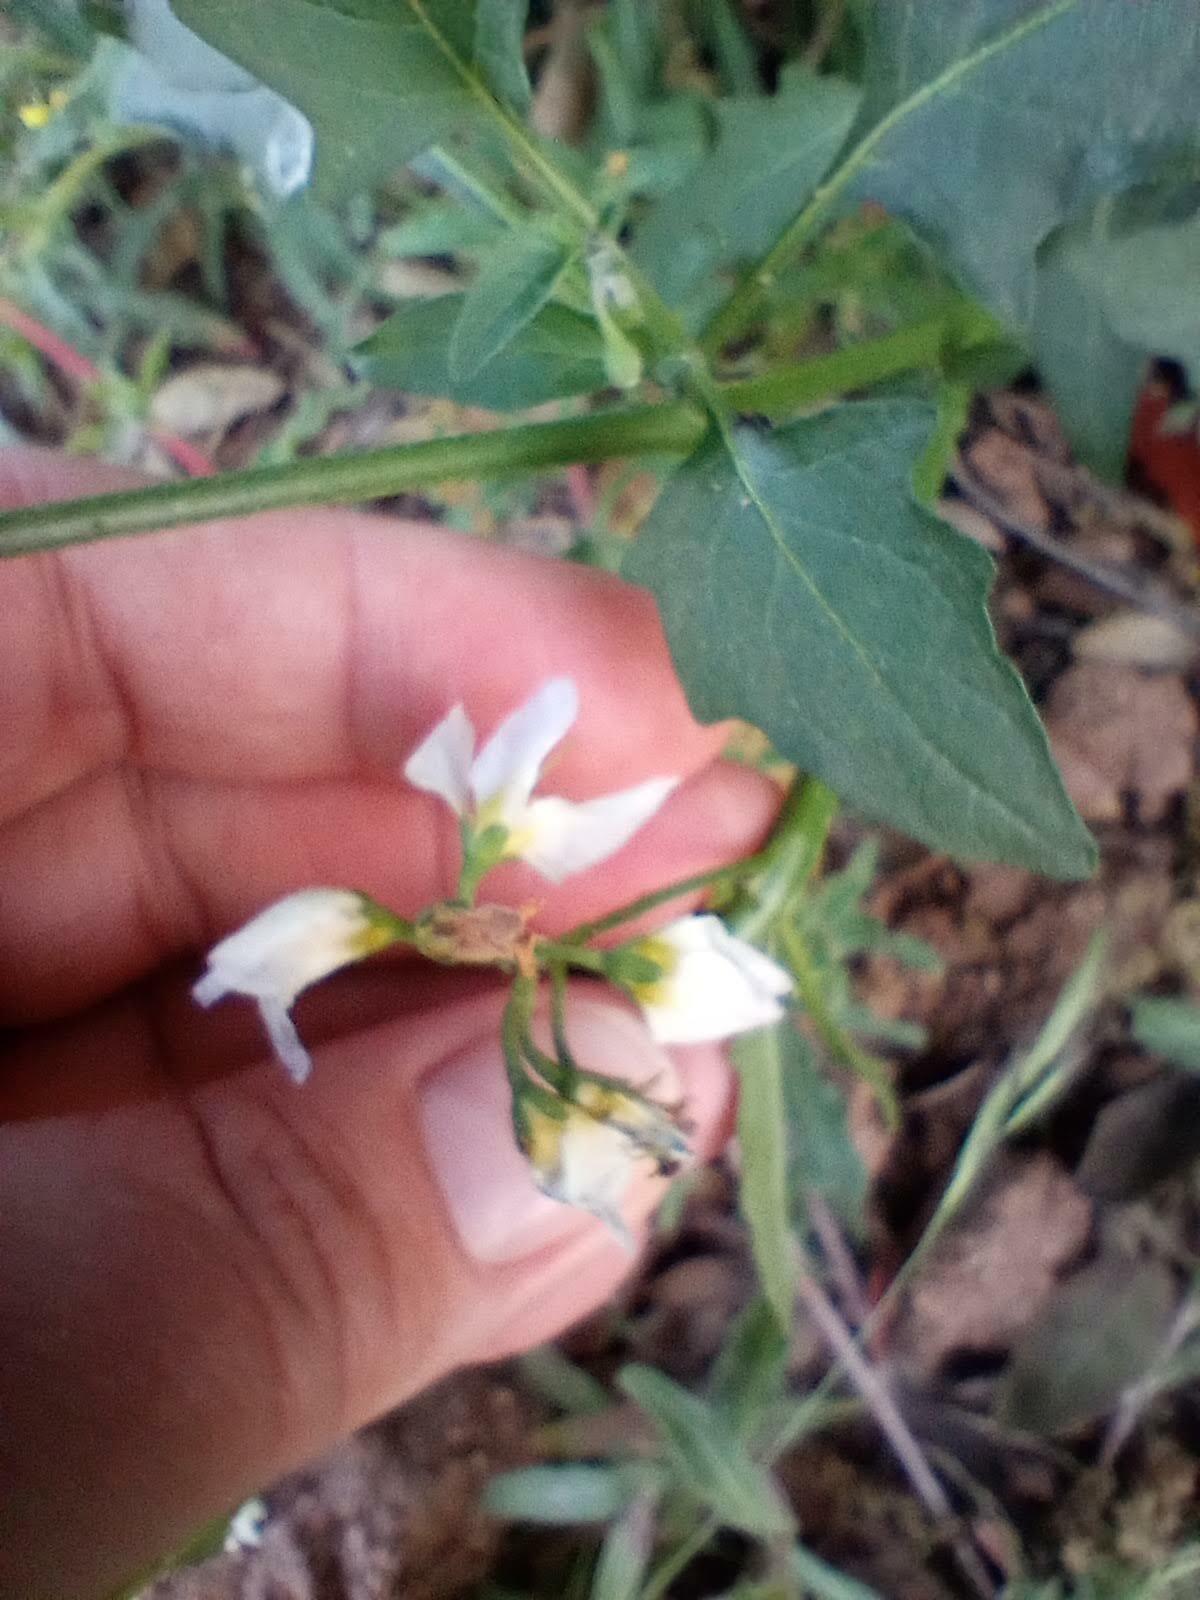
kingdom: Plantae
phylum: Tracheophyta
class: Magnoliopsida
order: Solanales
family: Solanaceae
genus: Solanum
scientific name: Solanum douglasii
